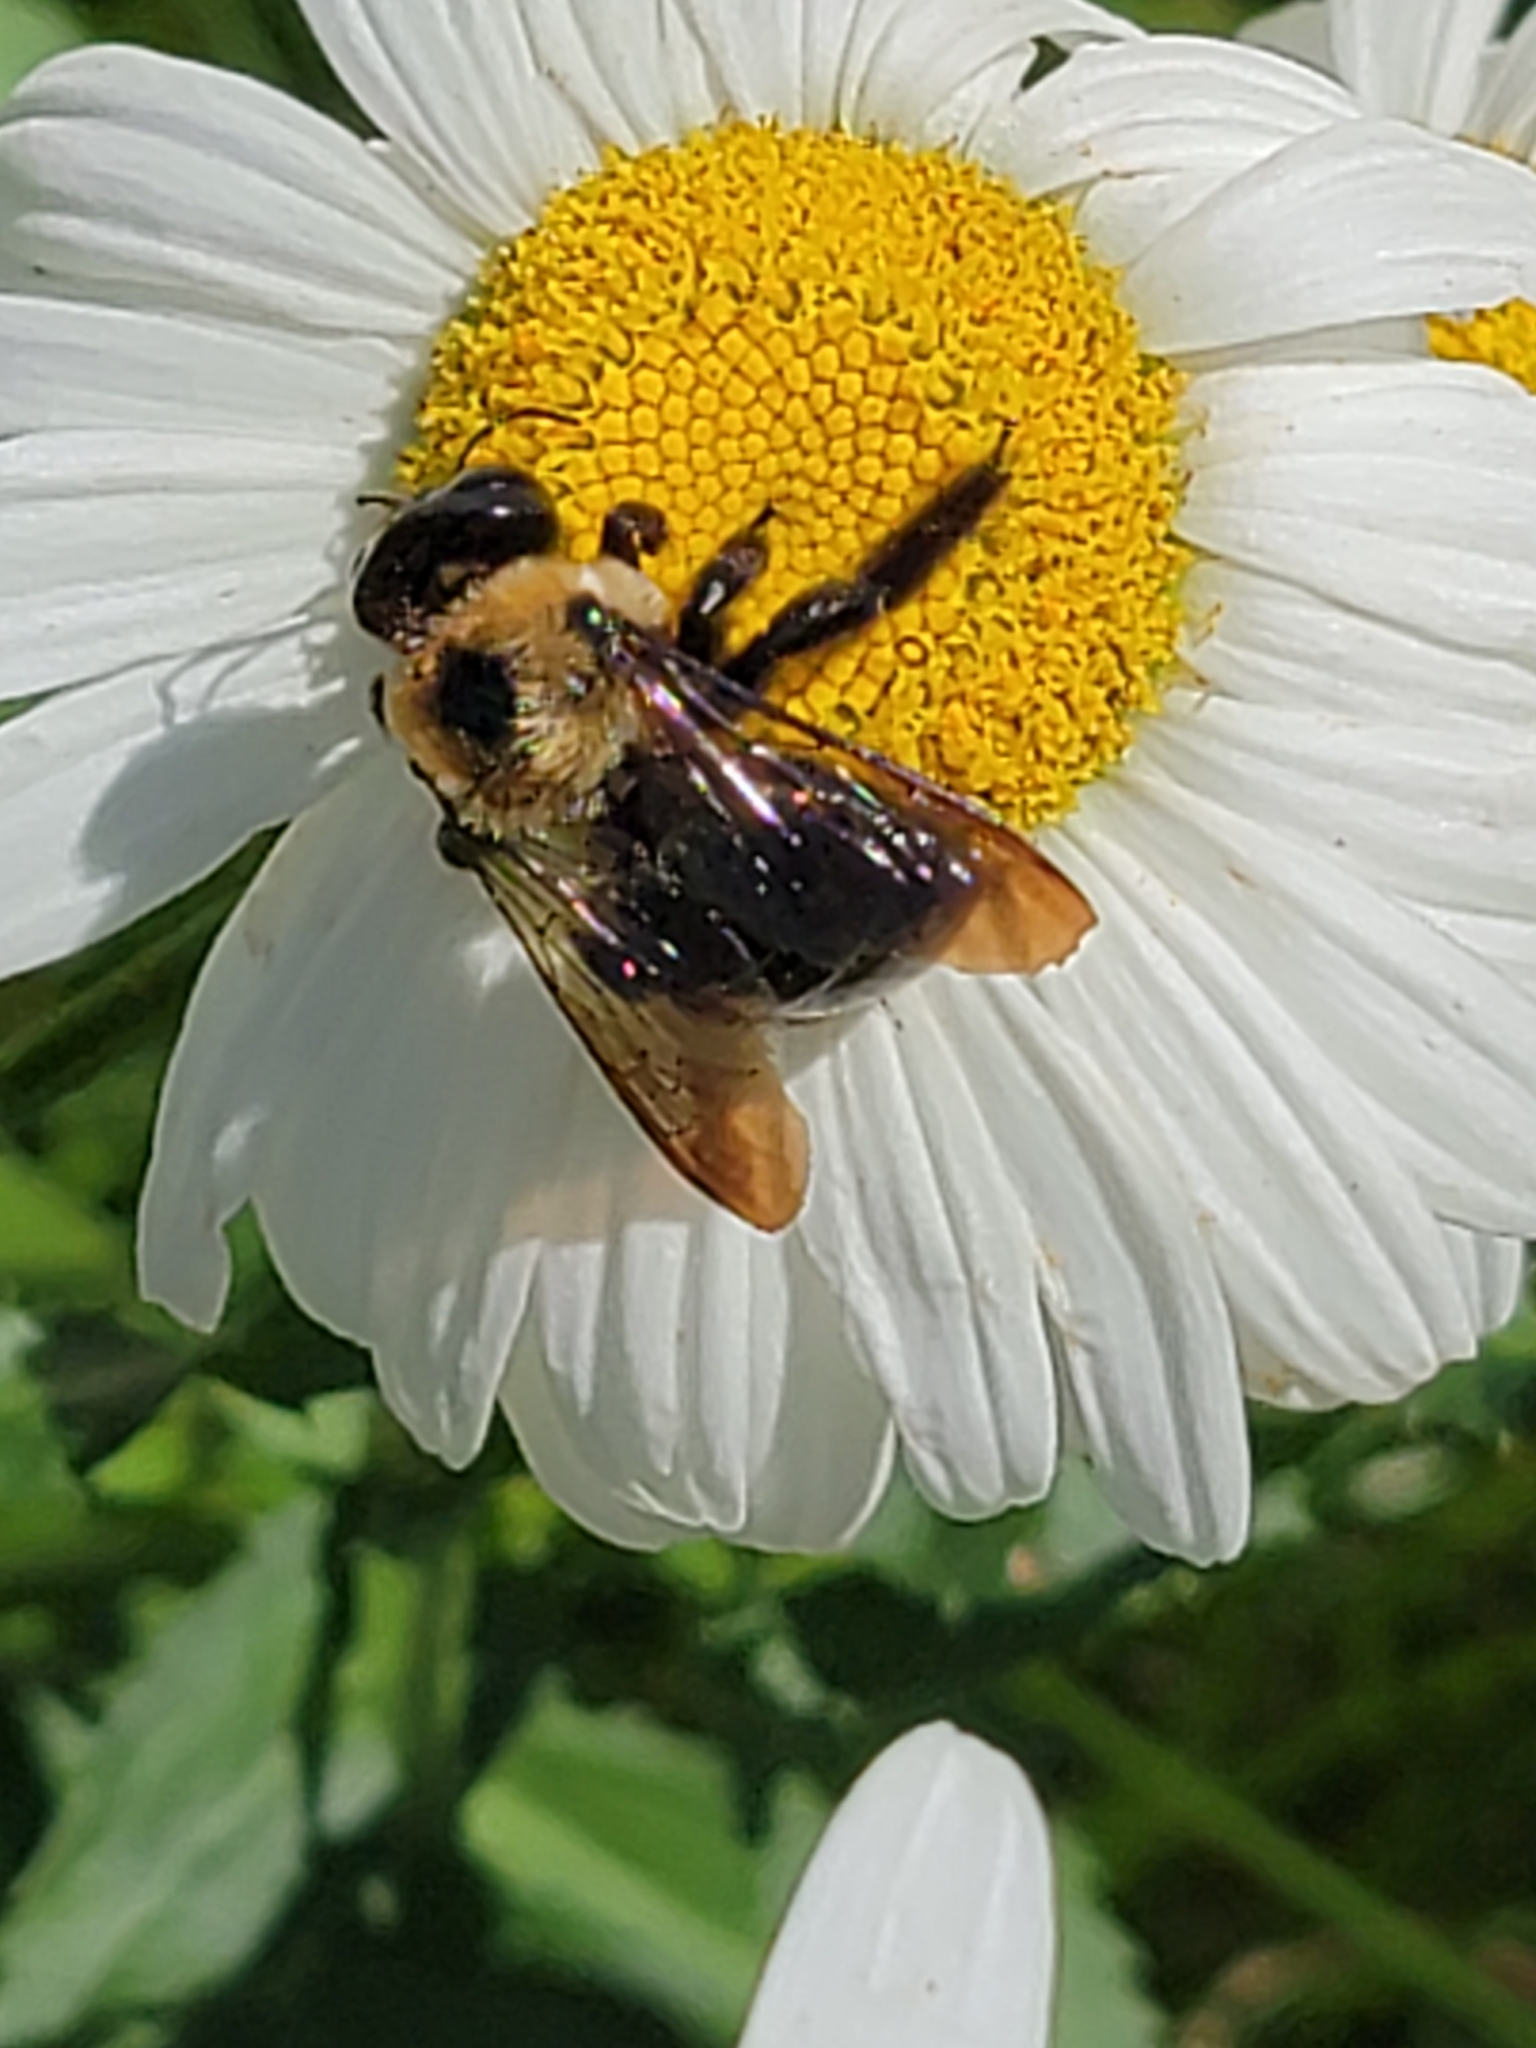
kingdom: Animalia
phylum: Arthropoda
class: Insecta
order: Hymenoptera
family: Apidae
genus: Xylocopa
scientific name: Xylocopa virginica
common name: Carpenter bee
